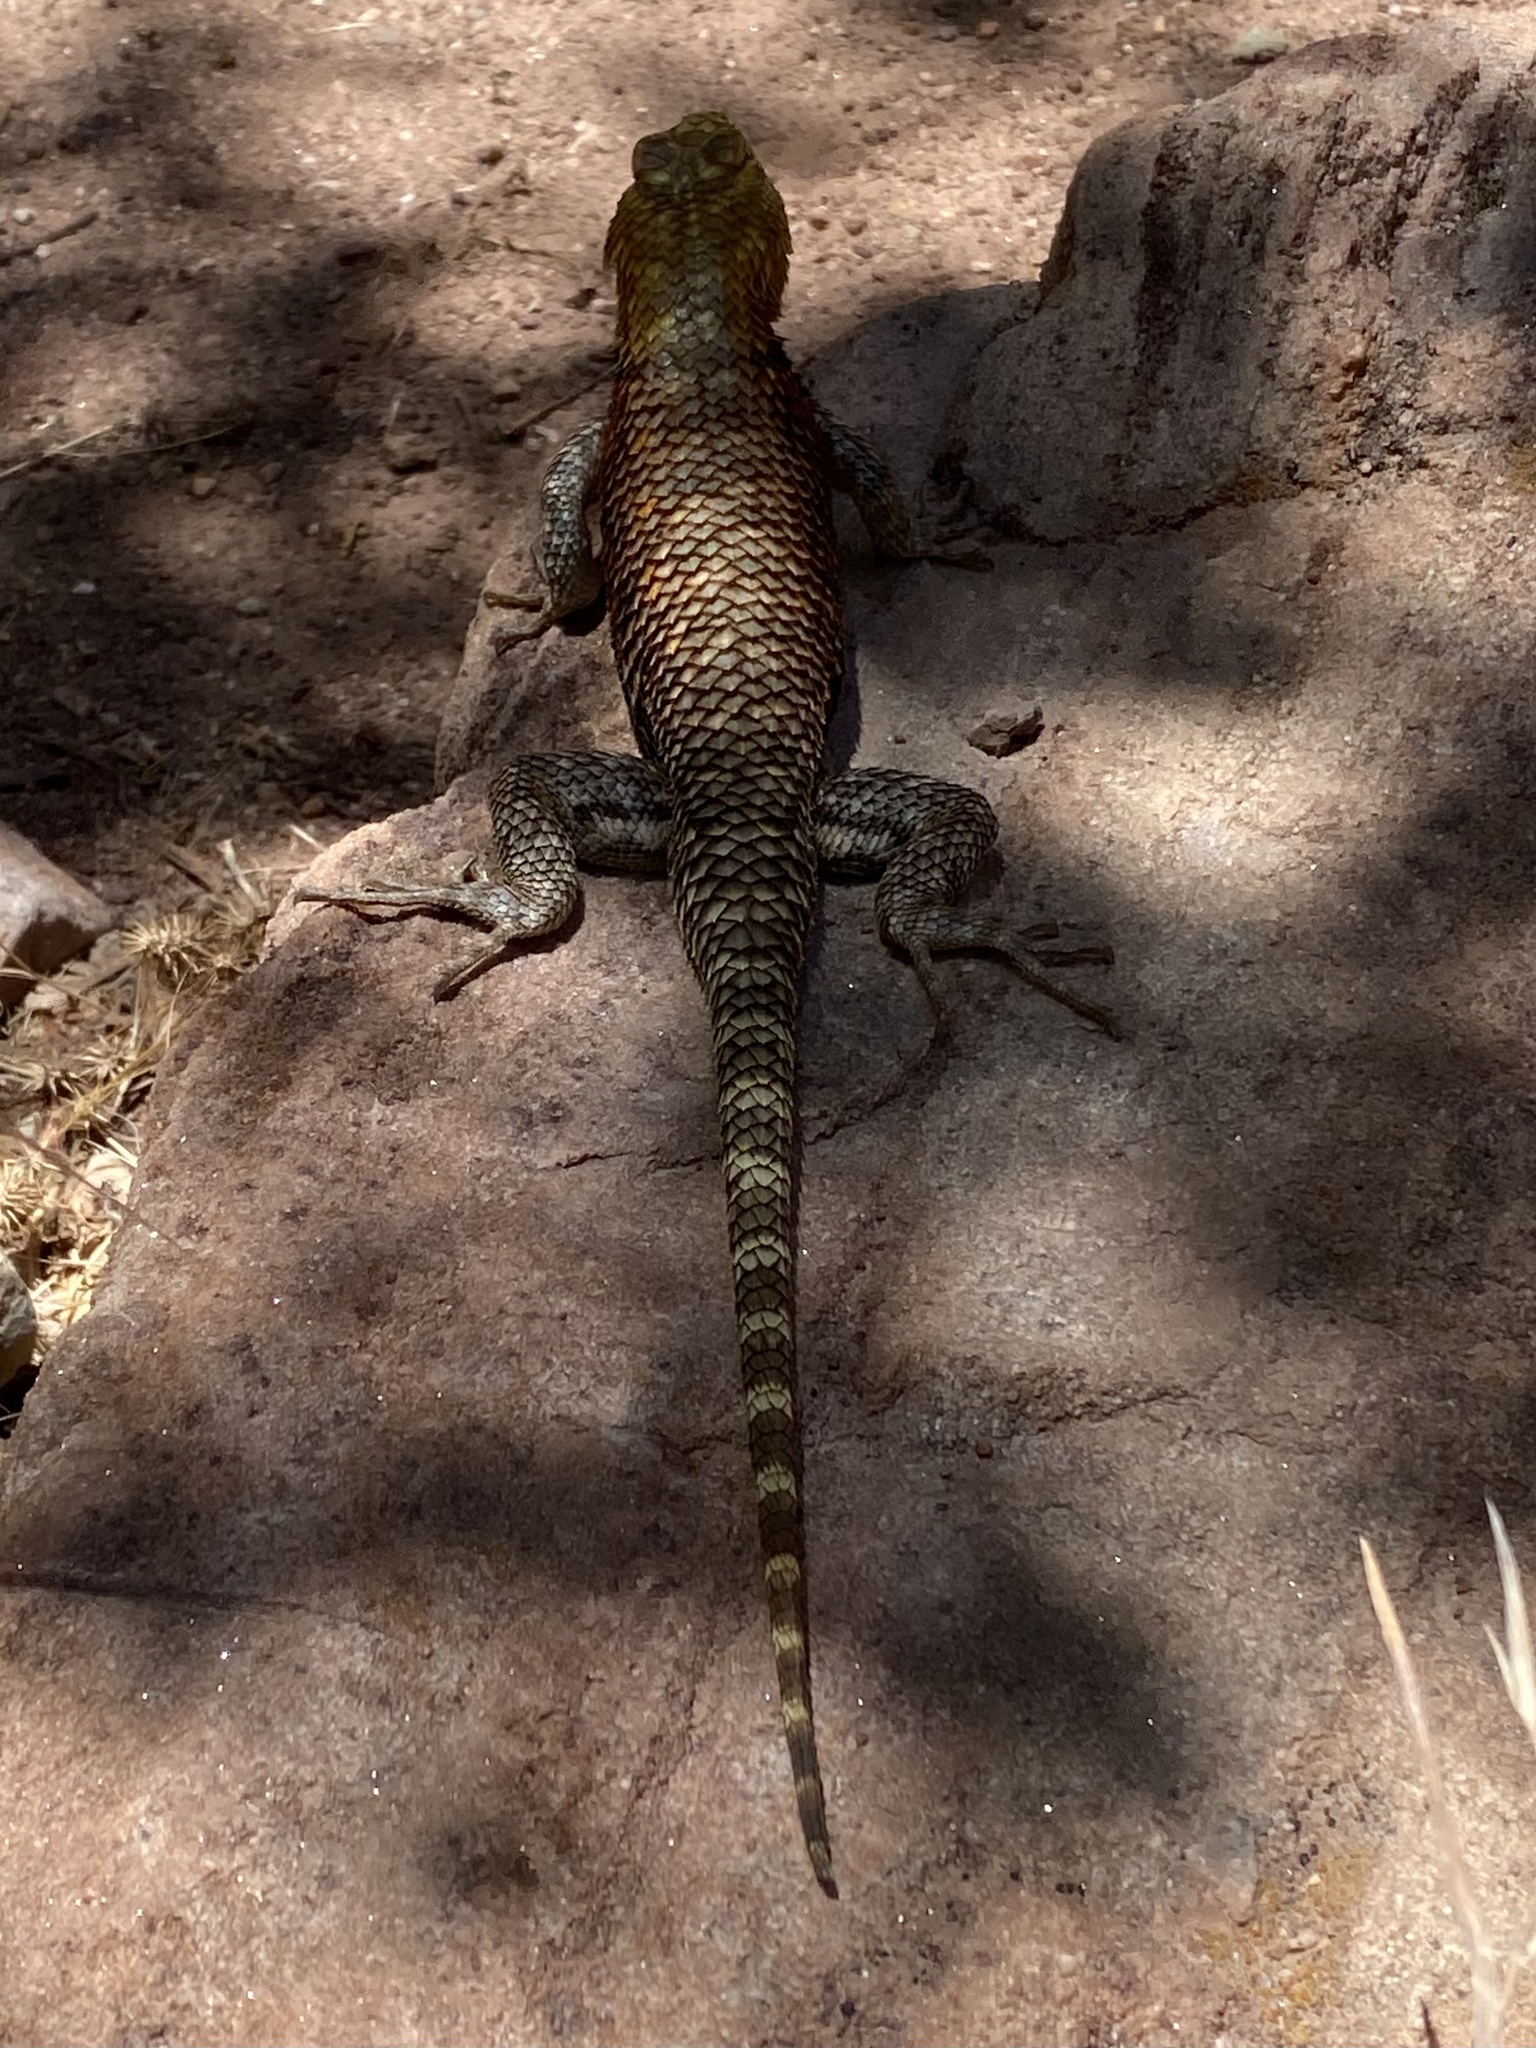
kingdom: Animalia
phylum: Chordata
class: Squamata
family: Phrynosomatidae
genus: Sceloporus
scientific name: Sceloporus magister
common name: Desert spiny lizard
